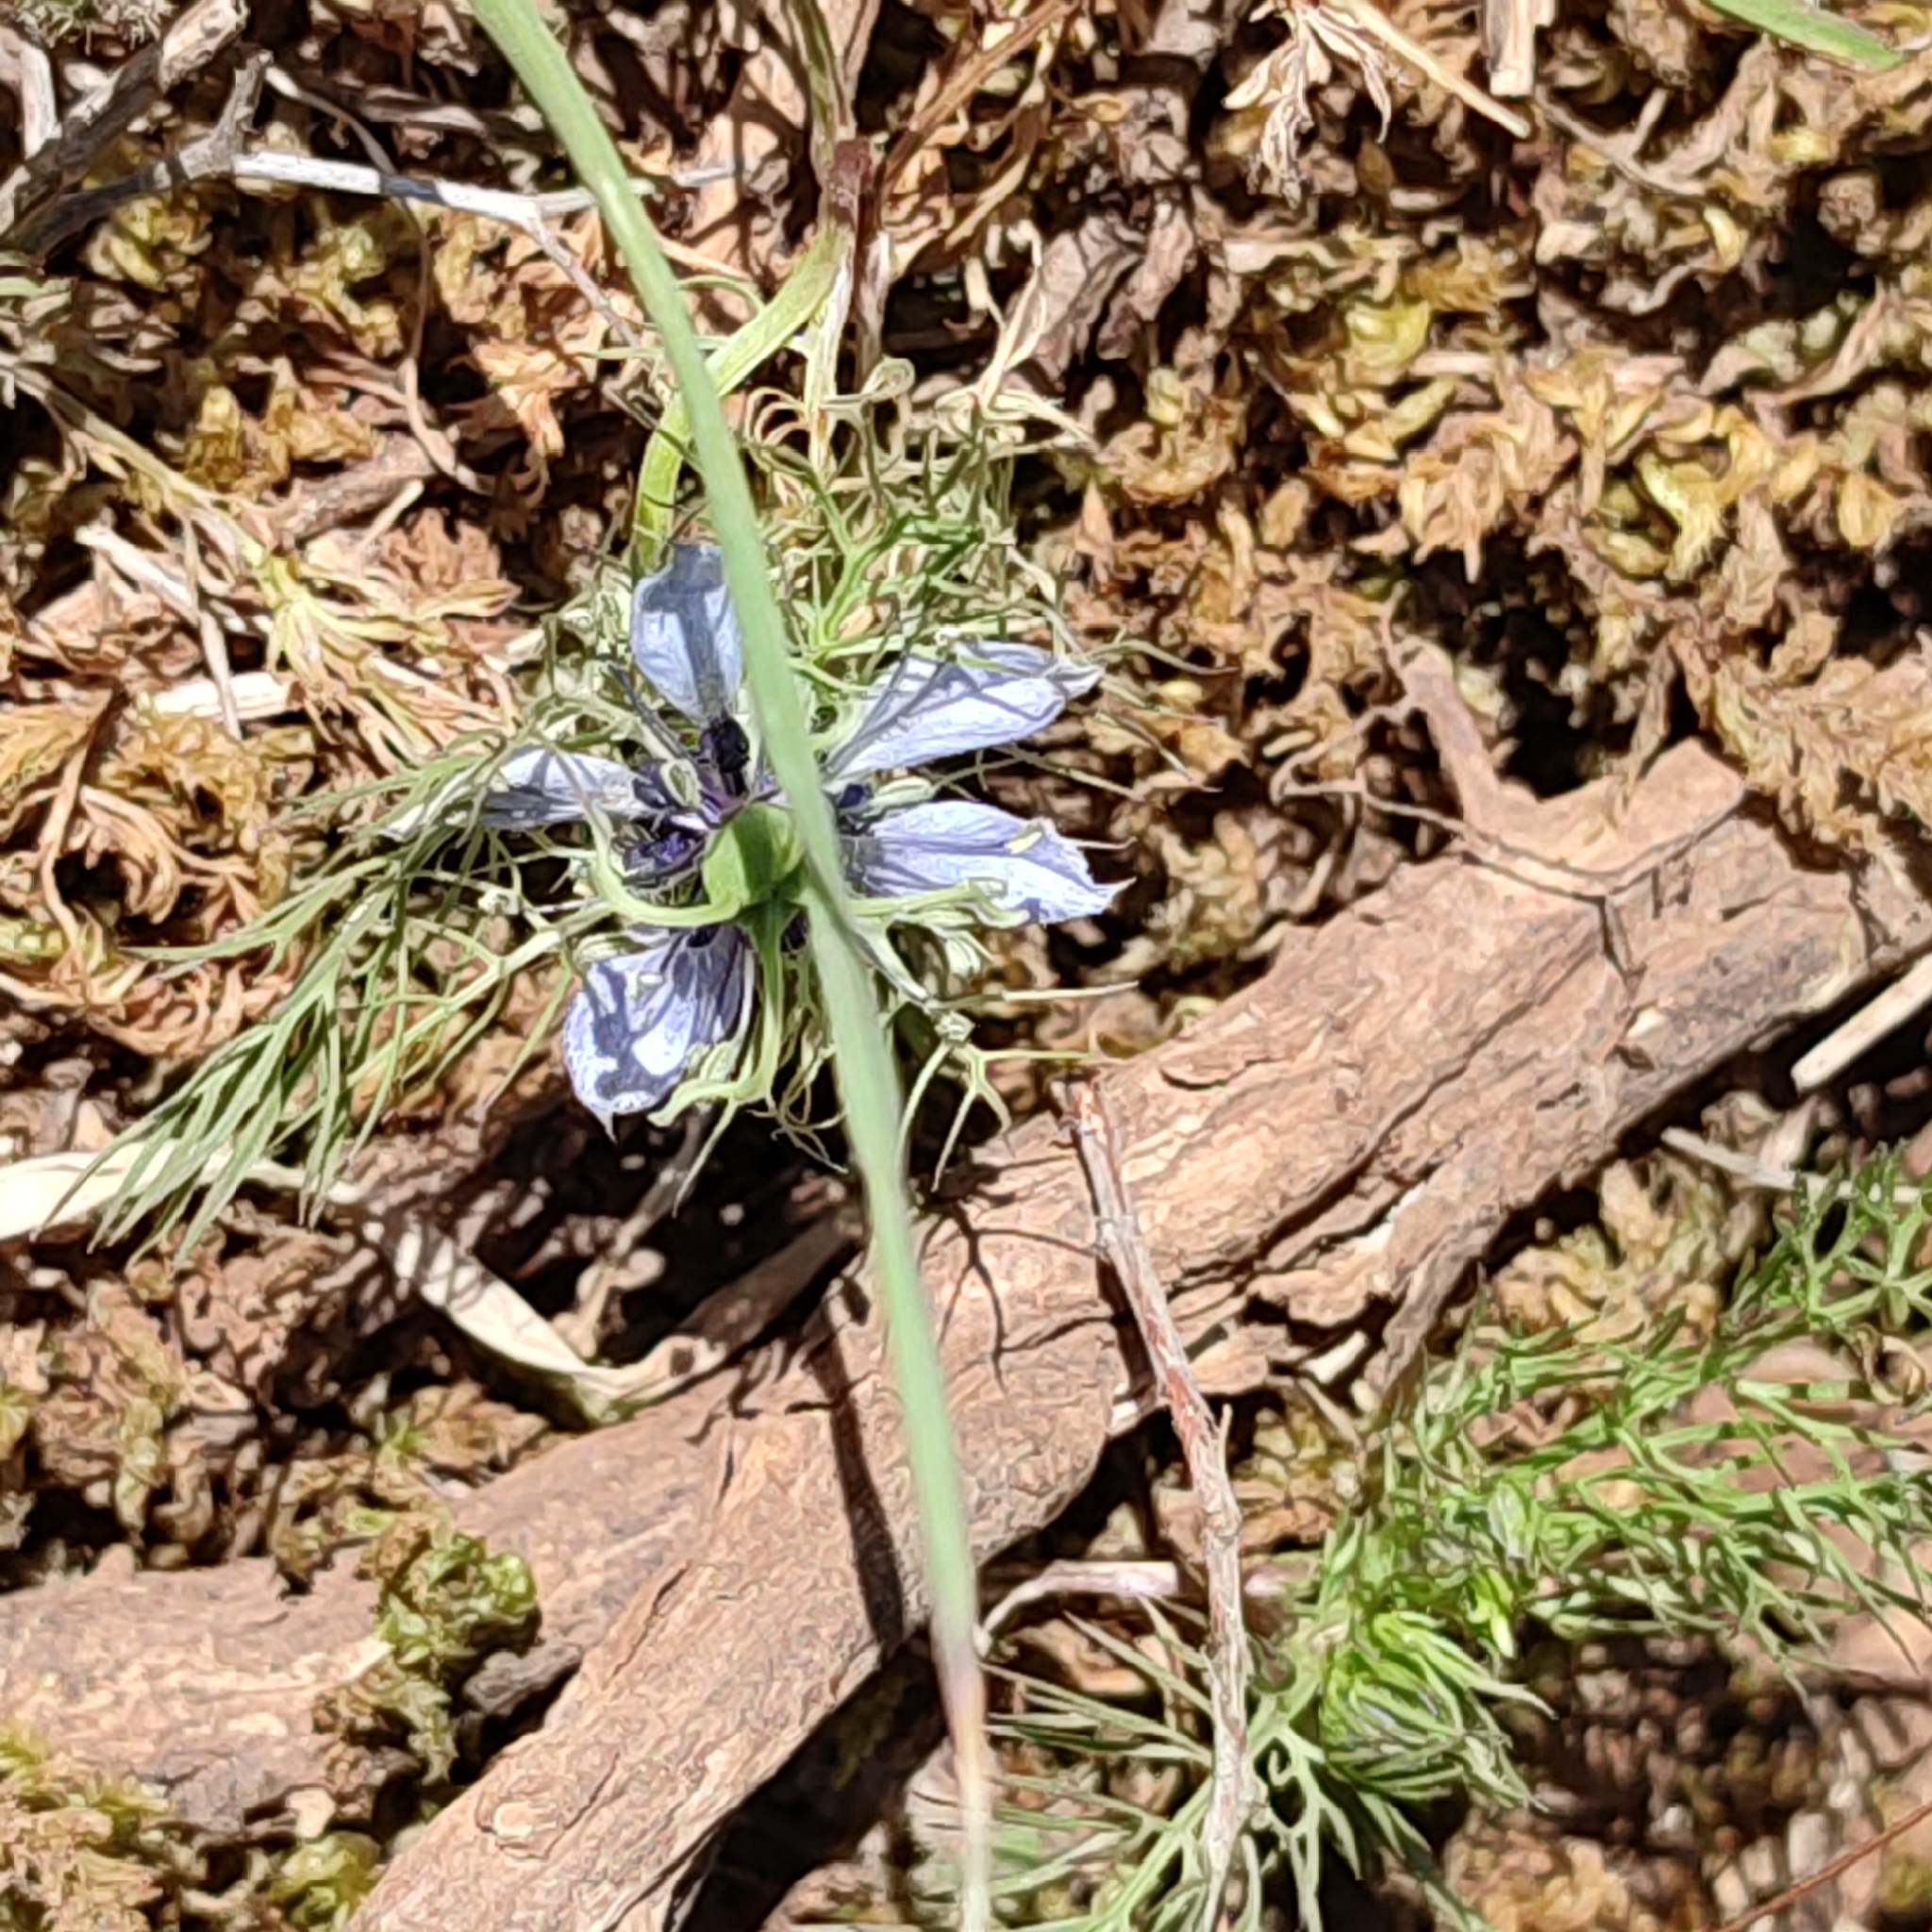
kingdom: Plantae
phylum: Tracheophyta
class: Magnoliopsida
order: Ranunculales
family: Ranunculaceae
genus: Nigella
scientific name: Nigella damascena
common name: Love-in-a-mist
